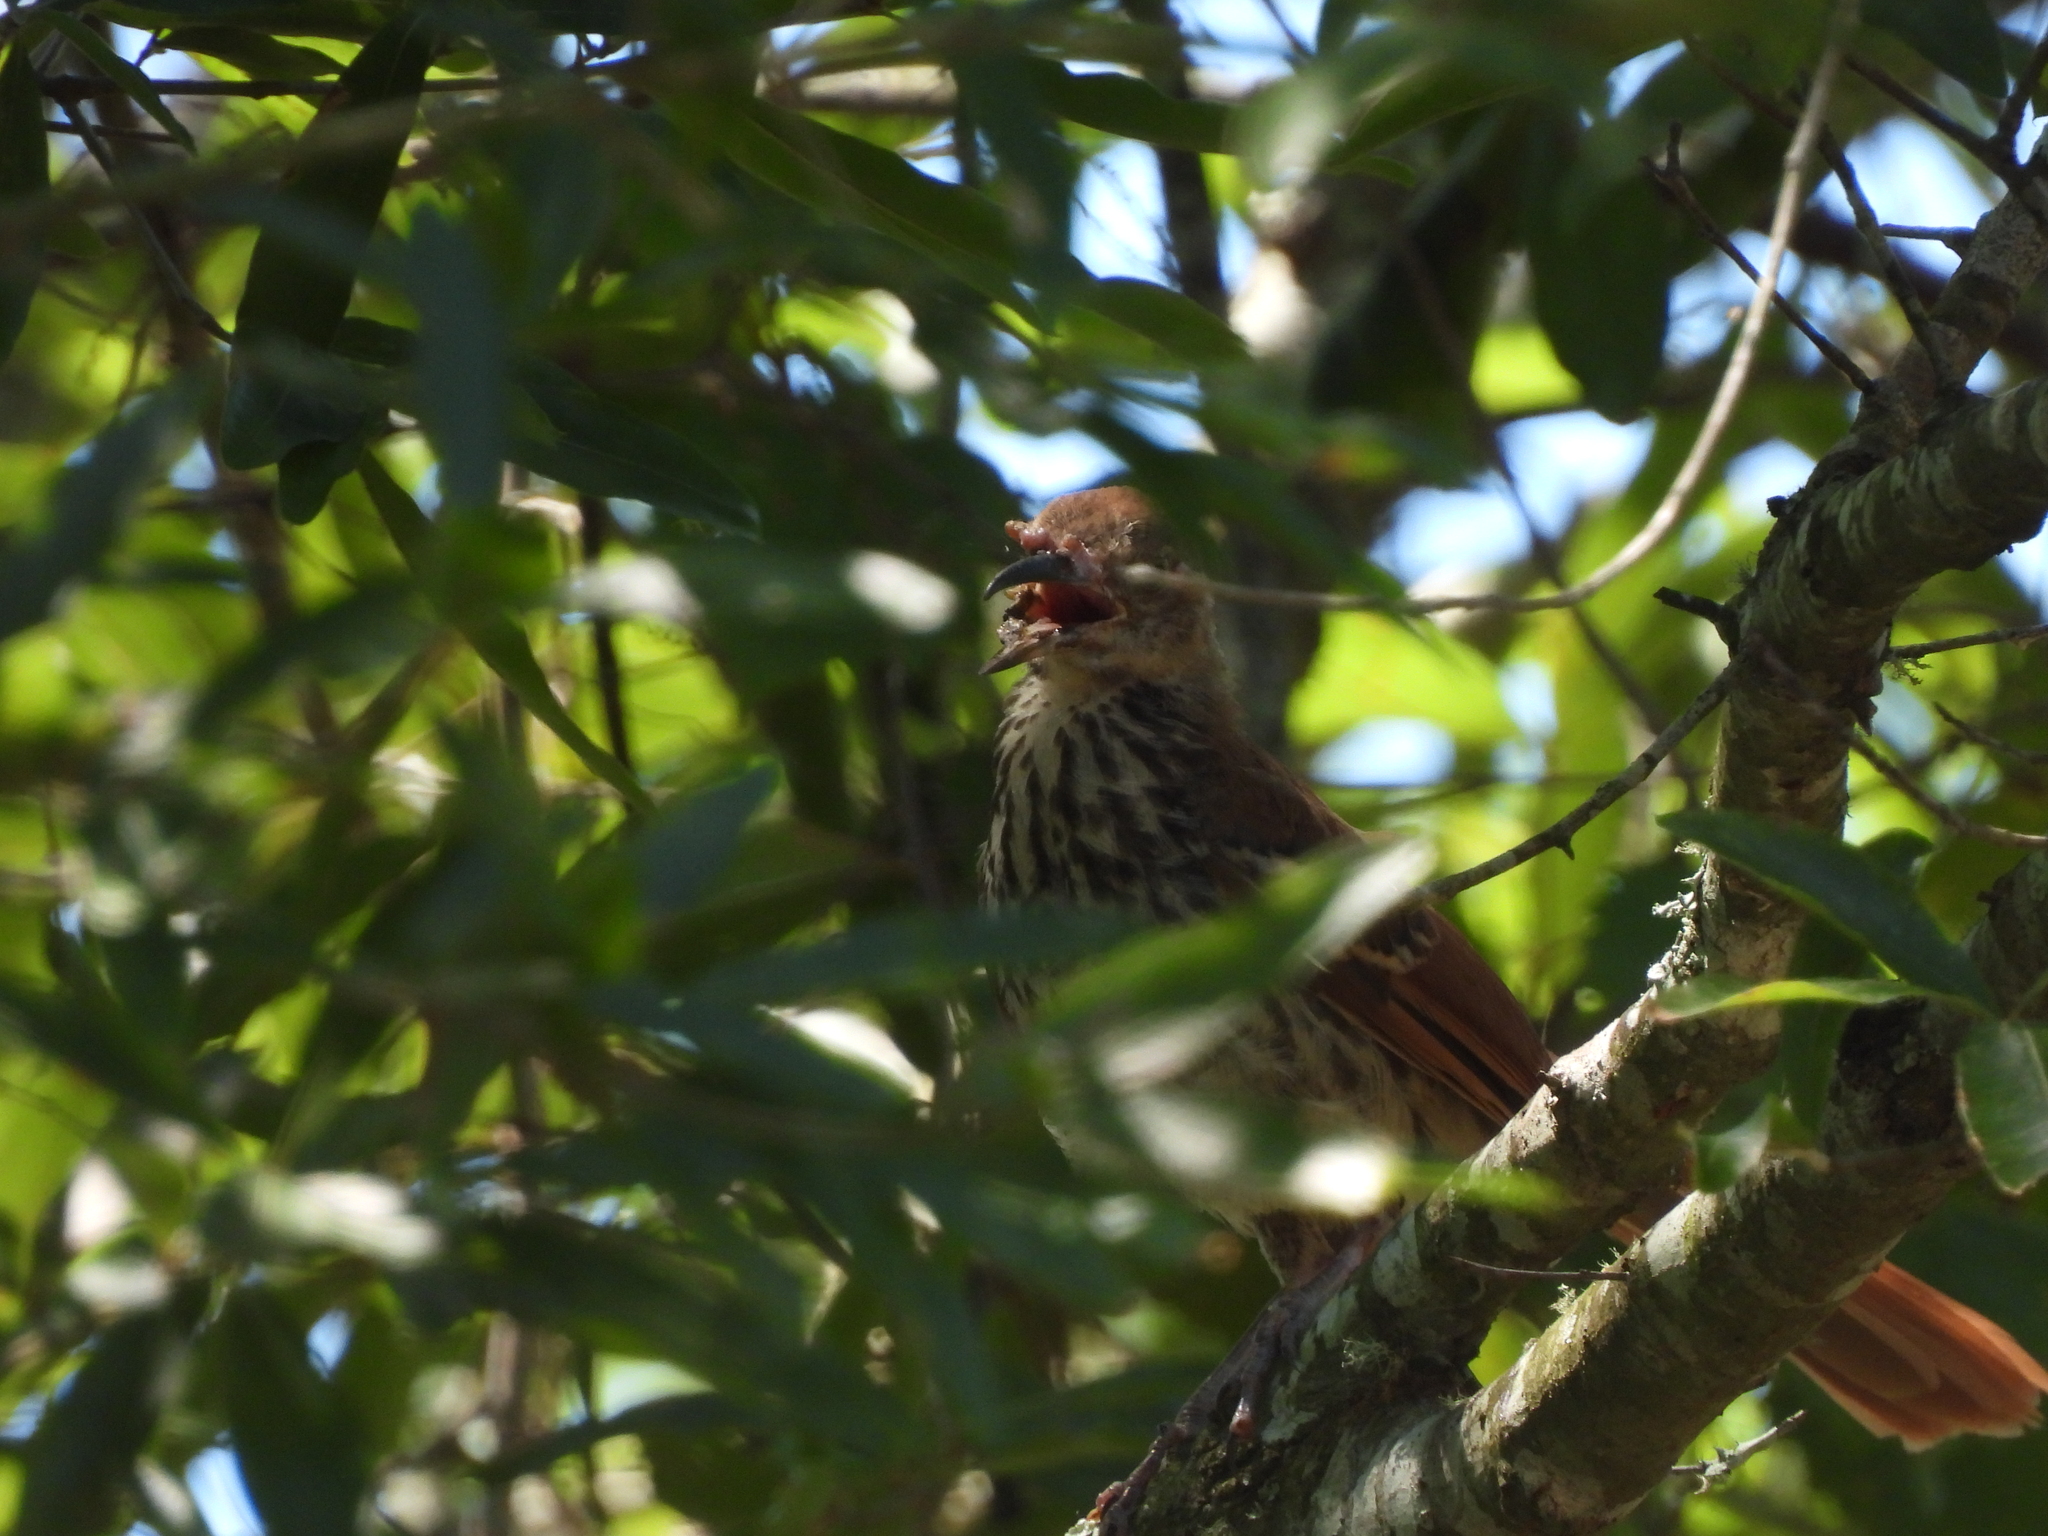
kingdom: Viruses
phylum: Nucleocytoviricota
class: Pokkesviricetes
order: Chitovirales
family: Poxviridae
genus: Avipoxvirus
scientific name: Avipoxvirus
